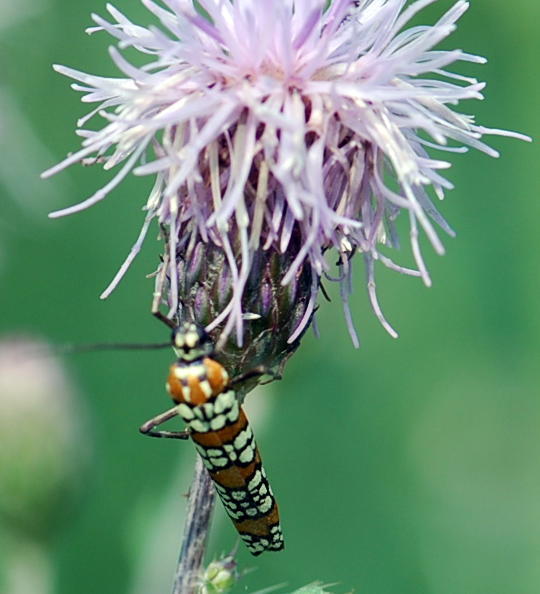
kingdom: Animalia
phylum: Arthropoda
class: Insecta
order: Lepidoptera
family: Attevidae
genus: Atteva
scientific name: Atteva punctella
